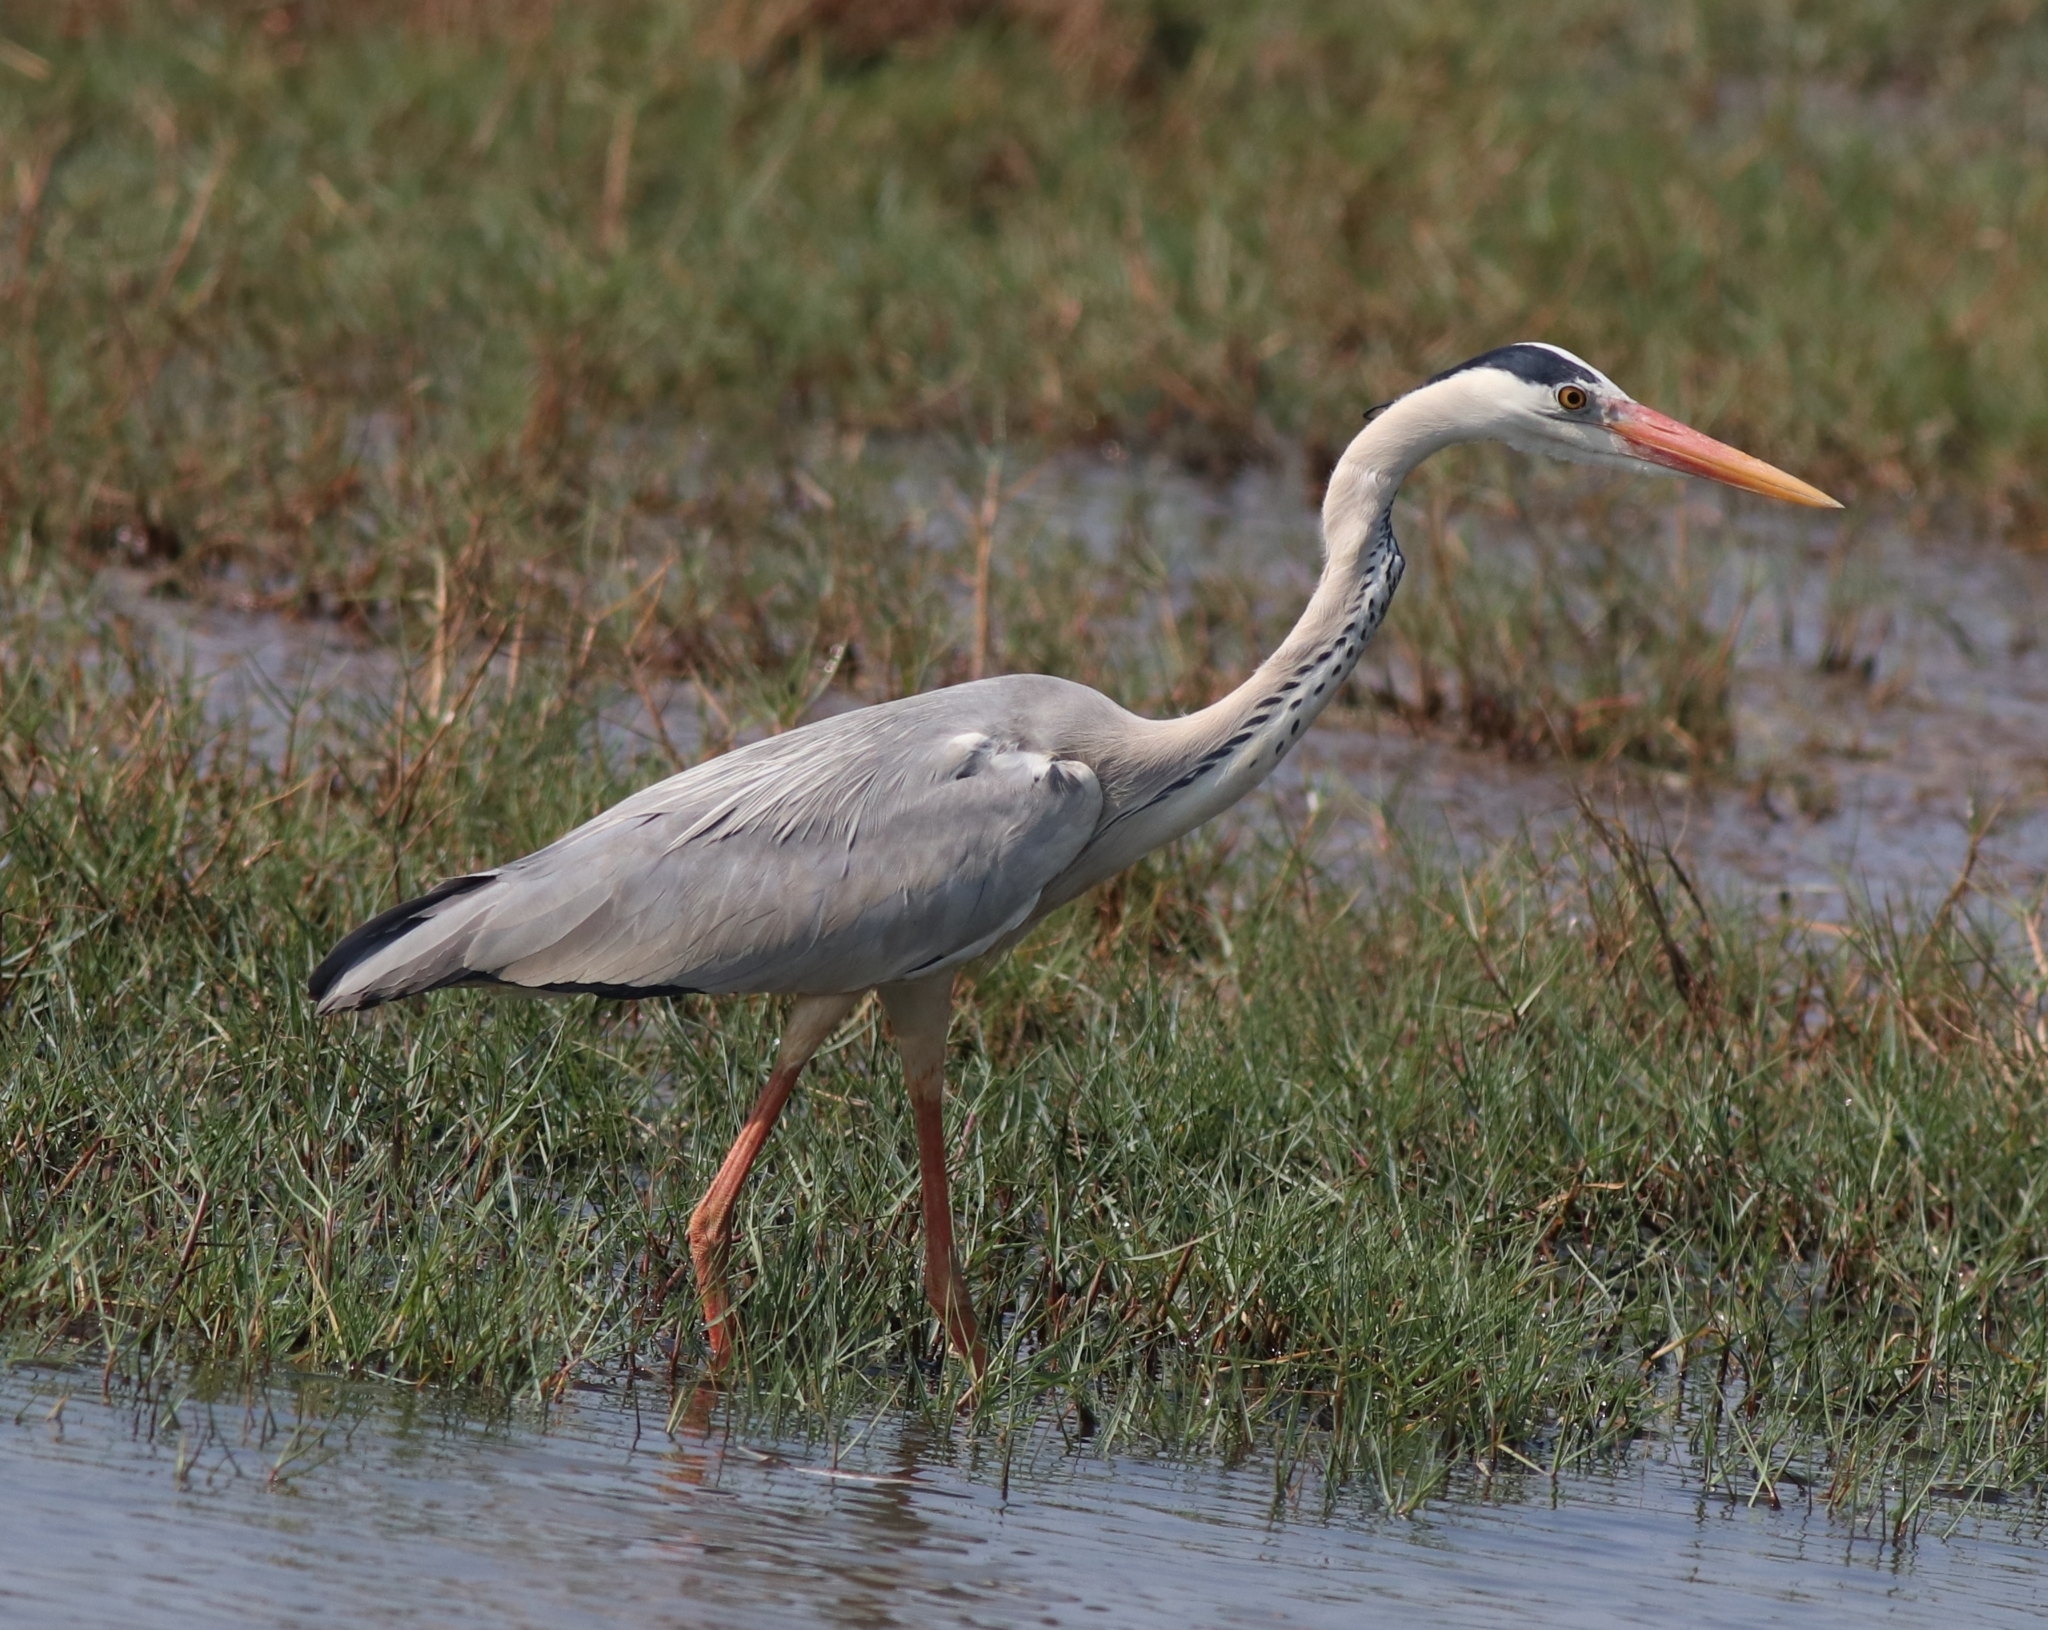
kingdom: Animalia
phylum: Chordata
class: Aves
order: Pelecaniformes
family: Ardeidae
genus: Ardea
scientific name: Ardea cinerea
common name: Grey heron
